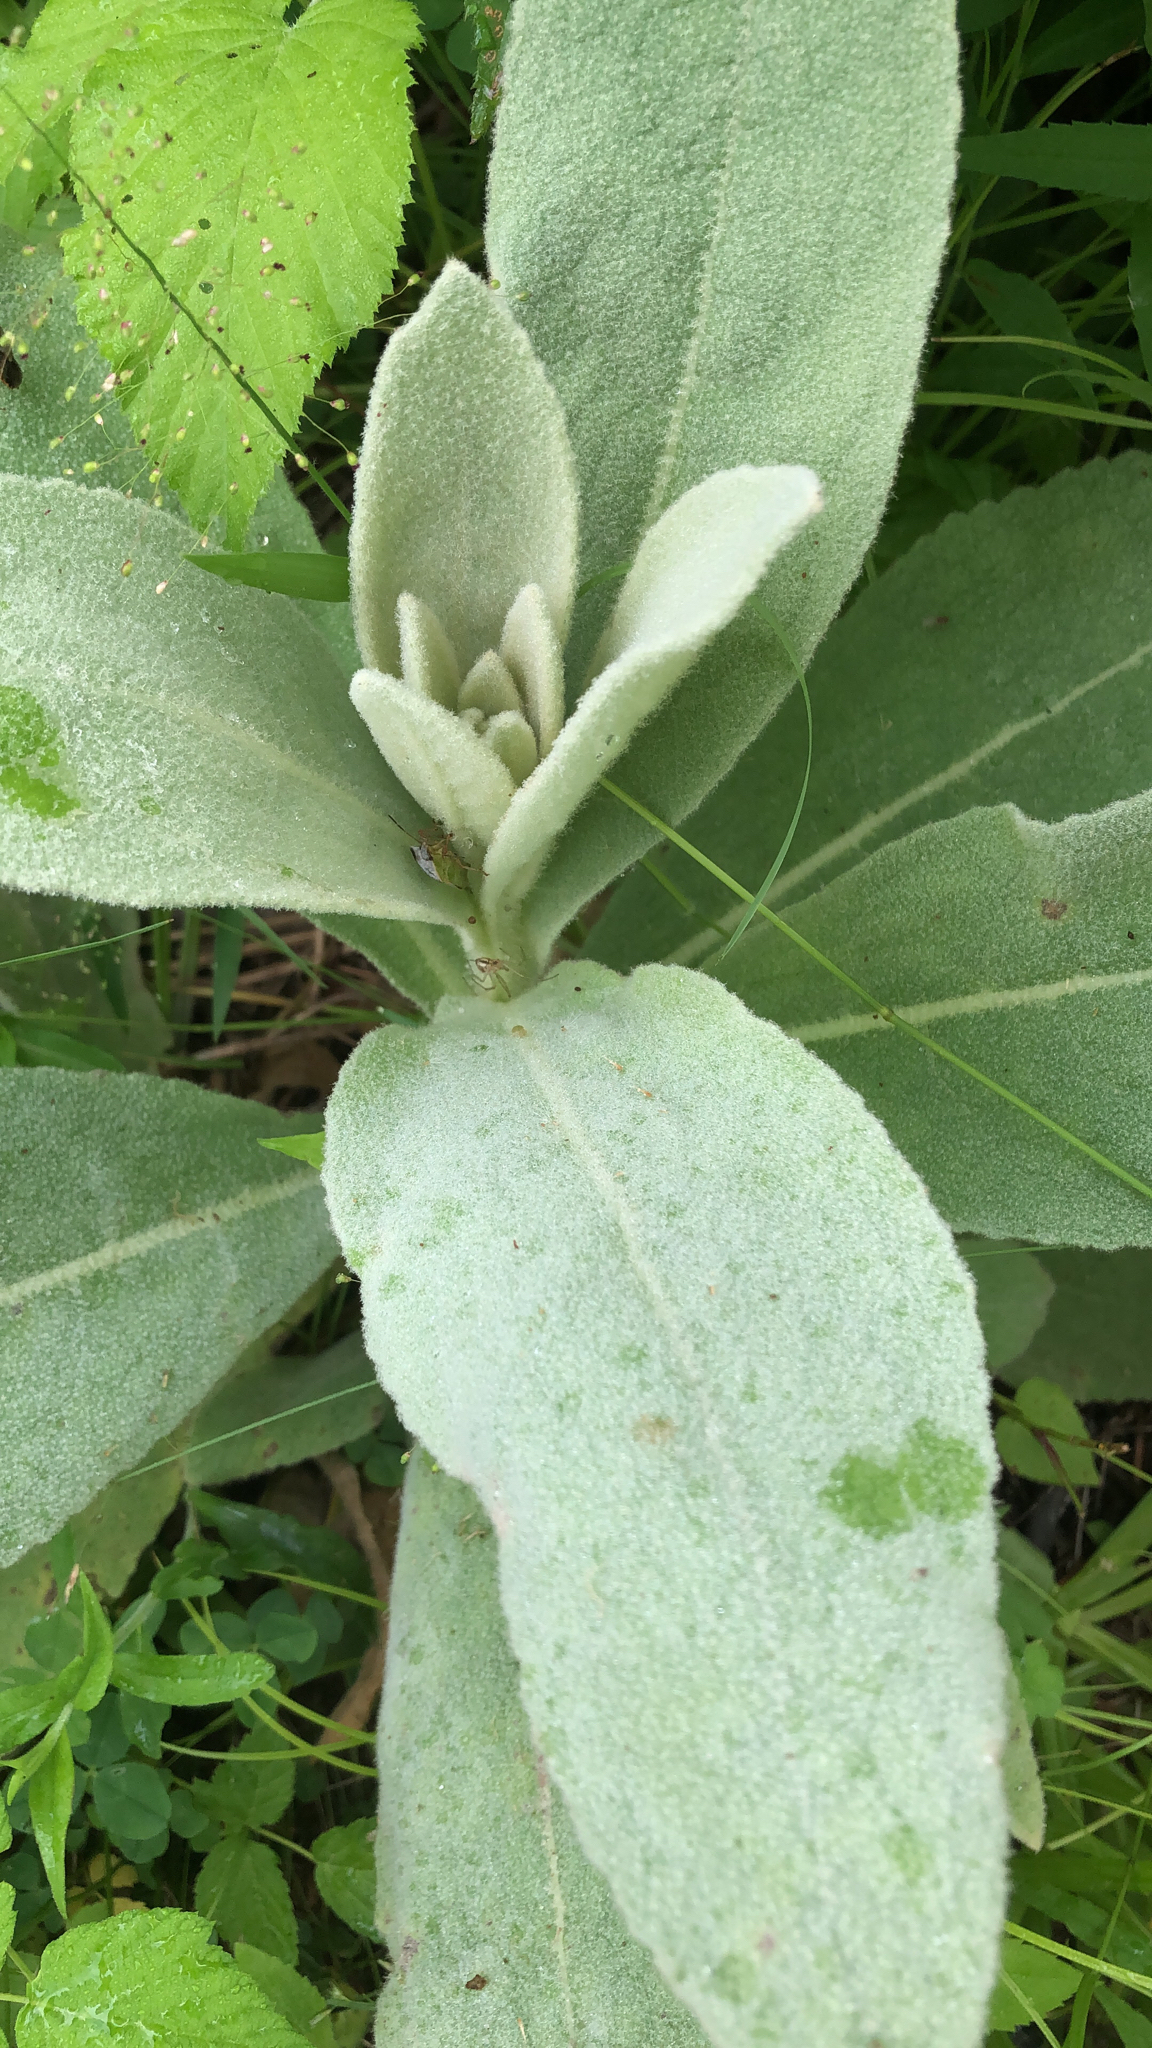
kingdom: Plantae
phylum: Tracheophyta
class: Magnoliopsida
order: Lamiales
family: Scrophulariaceae
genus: Verbascum
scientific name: Verbascum thapsus
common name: Common mullein
